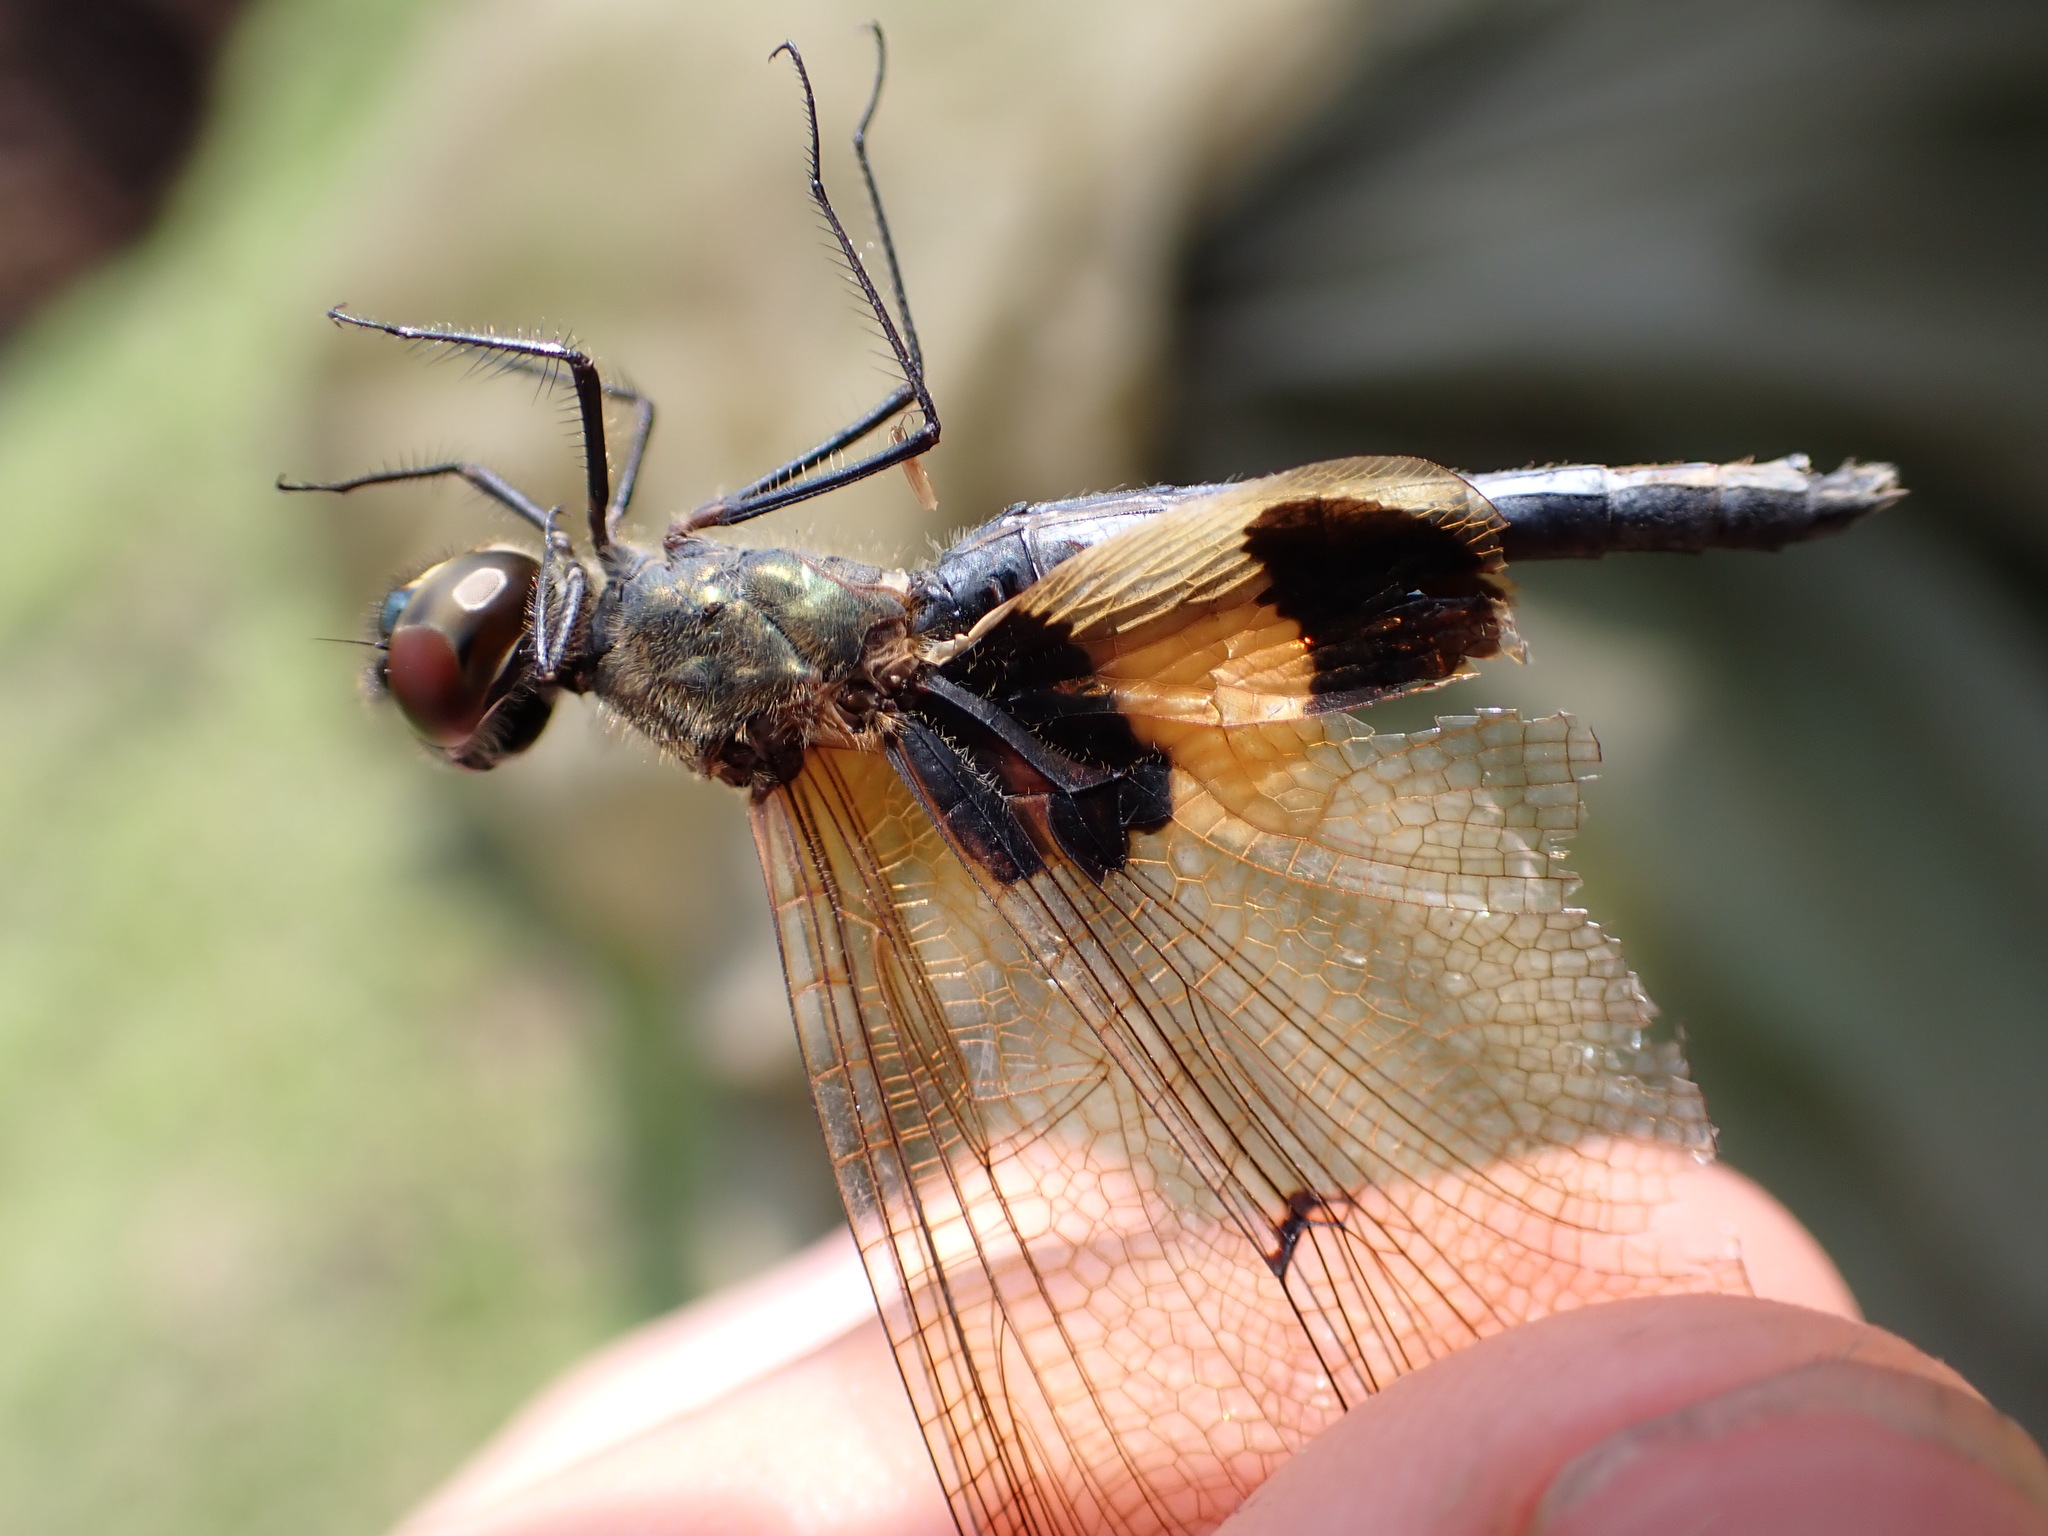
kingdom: Animalia
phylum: Arthropoda
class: Insecta
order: Odonata
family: Libellulidae
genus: Rhyothemis
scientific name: Rhyothemis phyllis
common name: Yellow-barred flutterer
